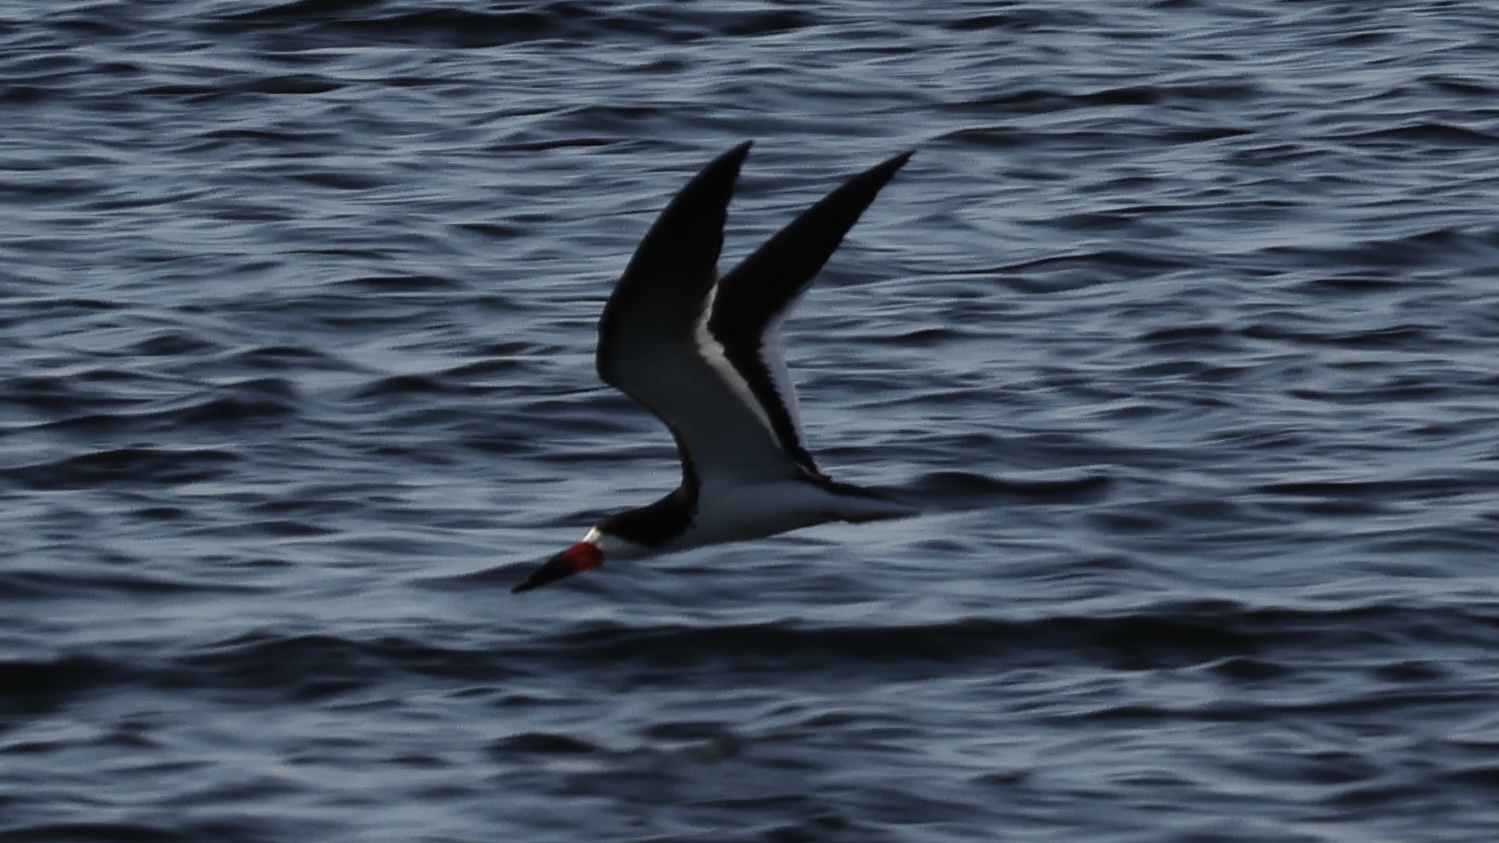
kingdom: Animalia
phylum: Chordata
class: Aves
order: Charadriiformes
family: Laridae
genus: Rynchops
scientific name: Rynchops niger
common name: Black skimmer
